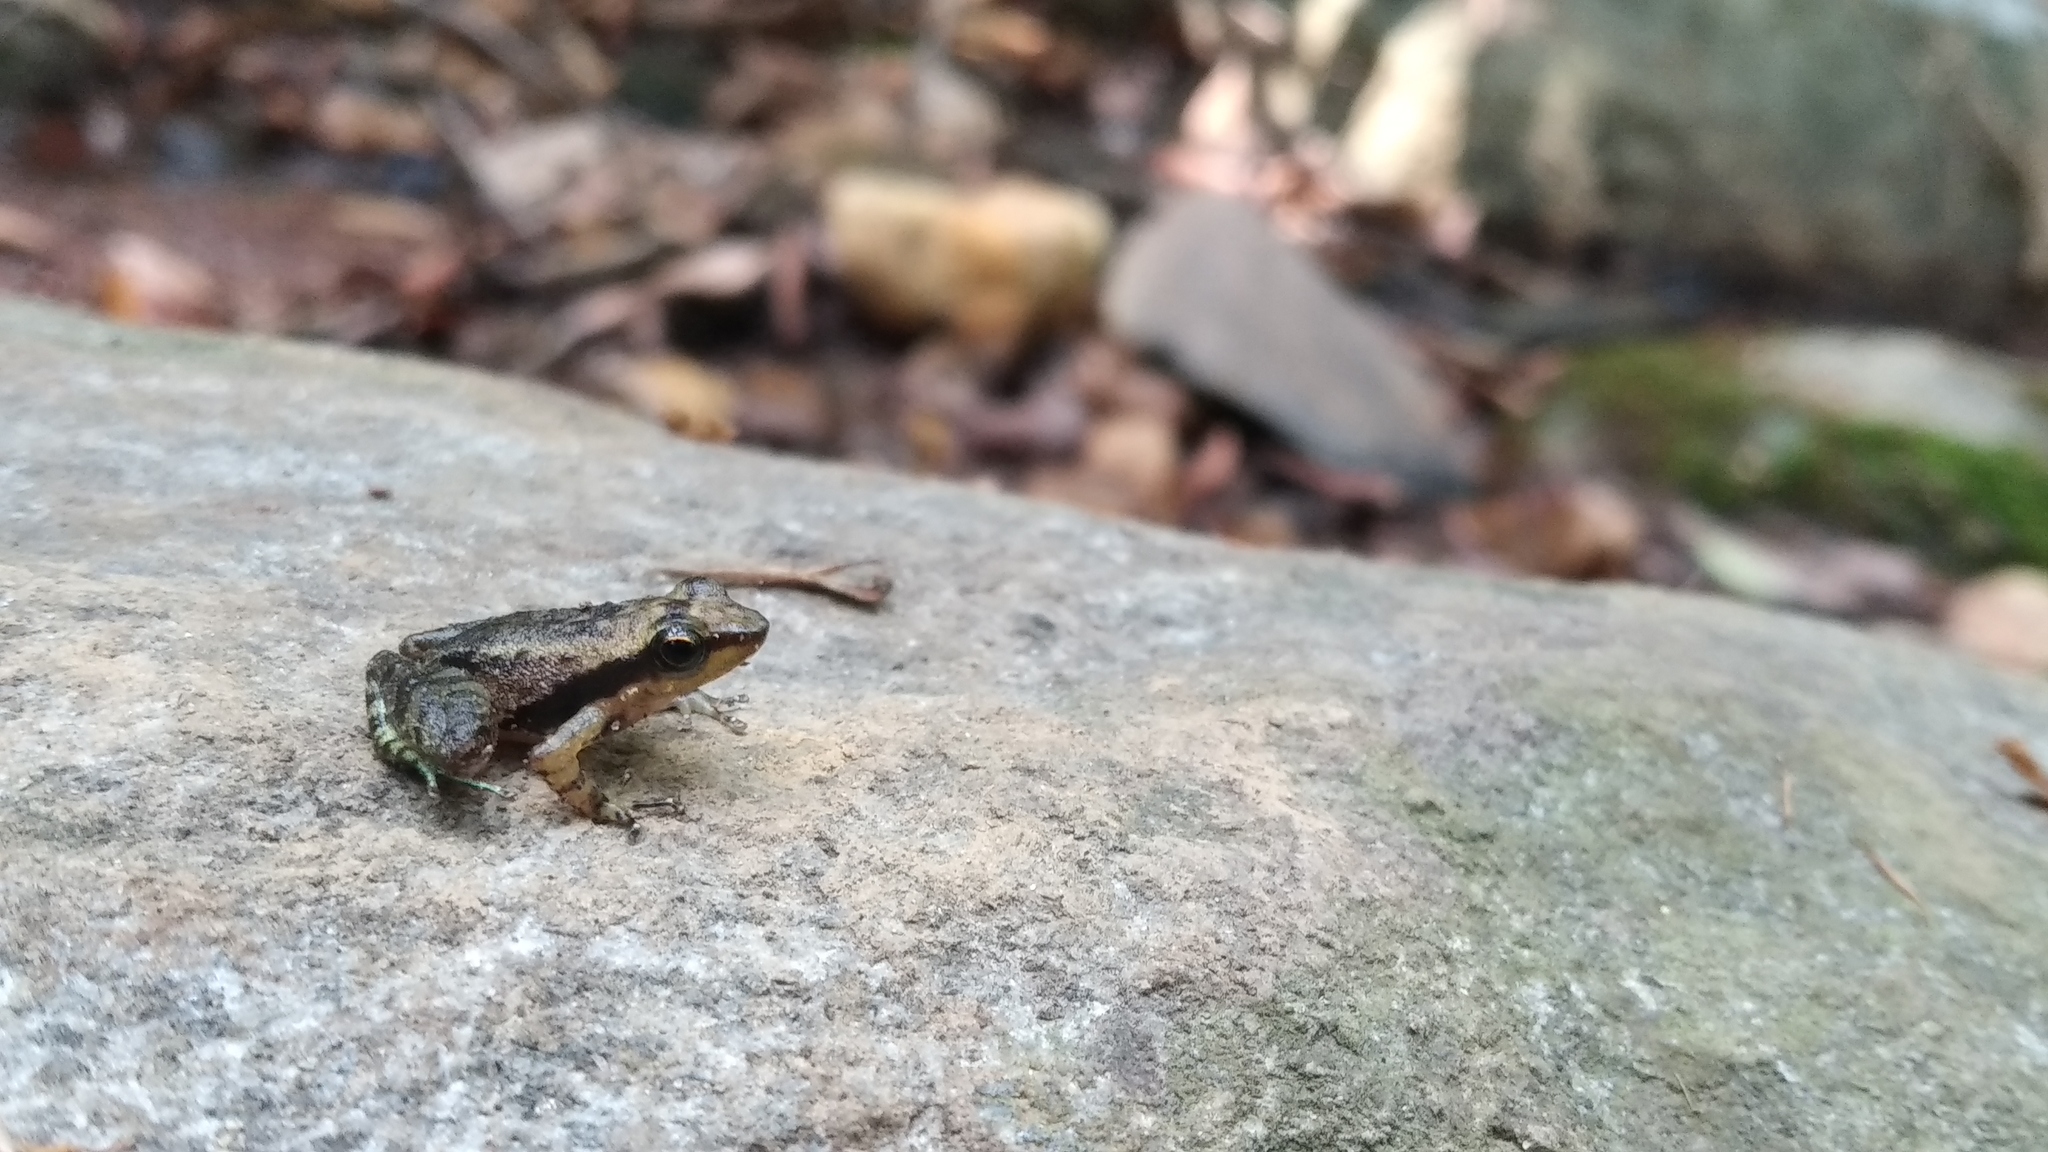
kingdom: Animalia
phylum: Chordata
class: Amphibia
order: Anura
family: Micrixalidae
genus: Micrixalus
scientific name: Micrixalus thampii
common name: Silent valley dancing frog
